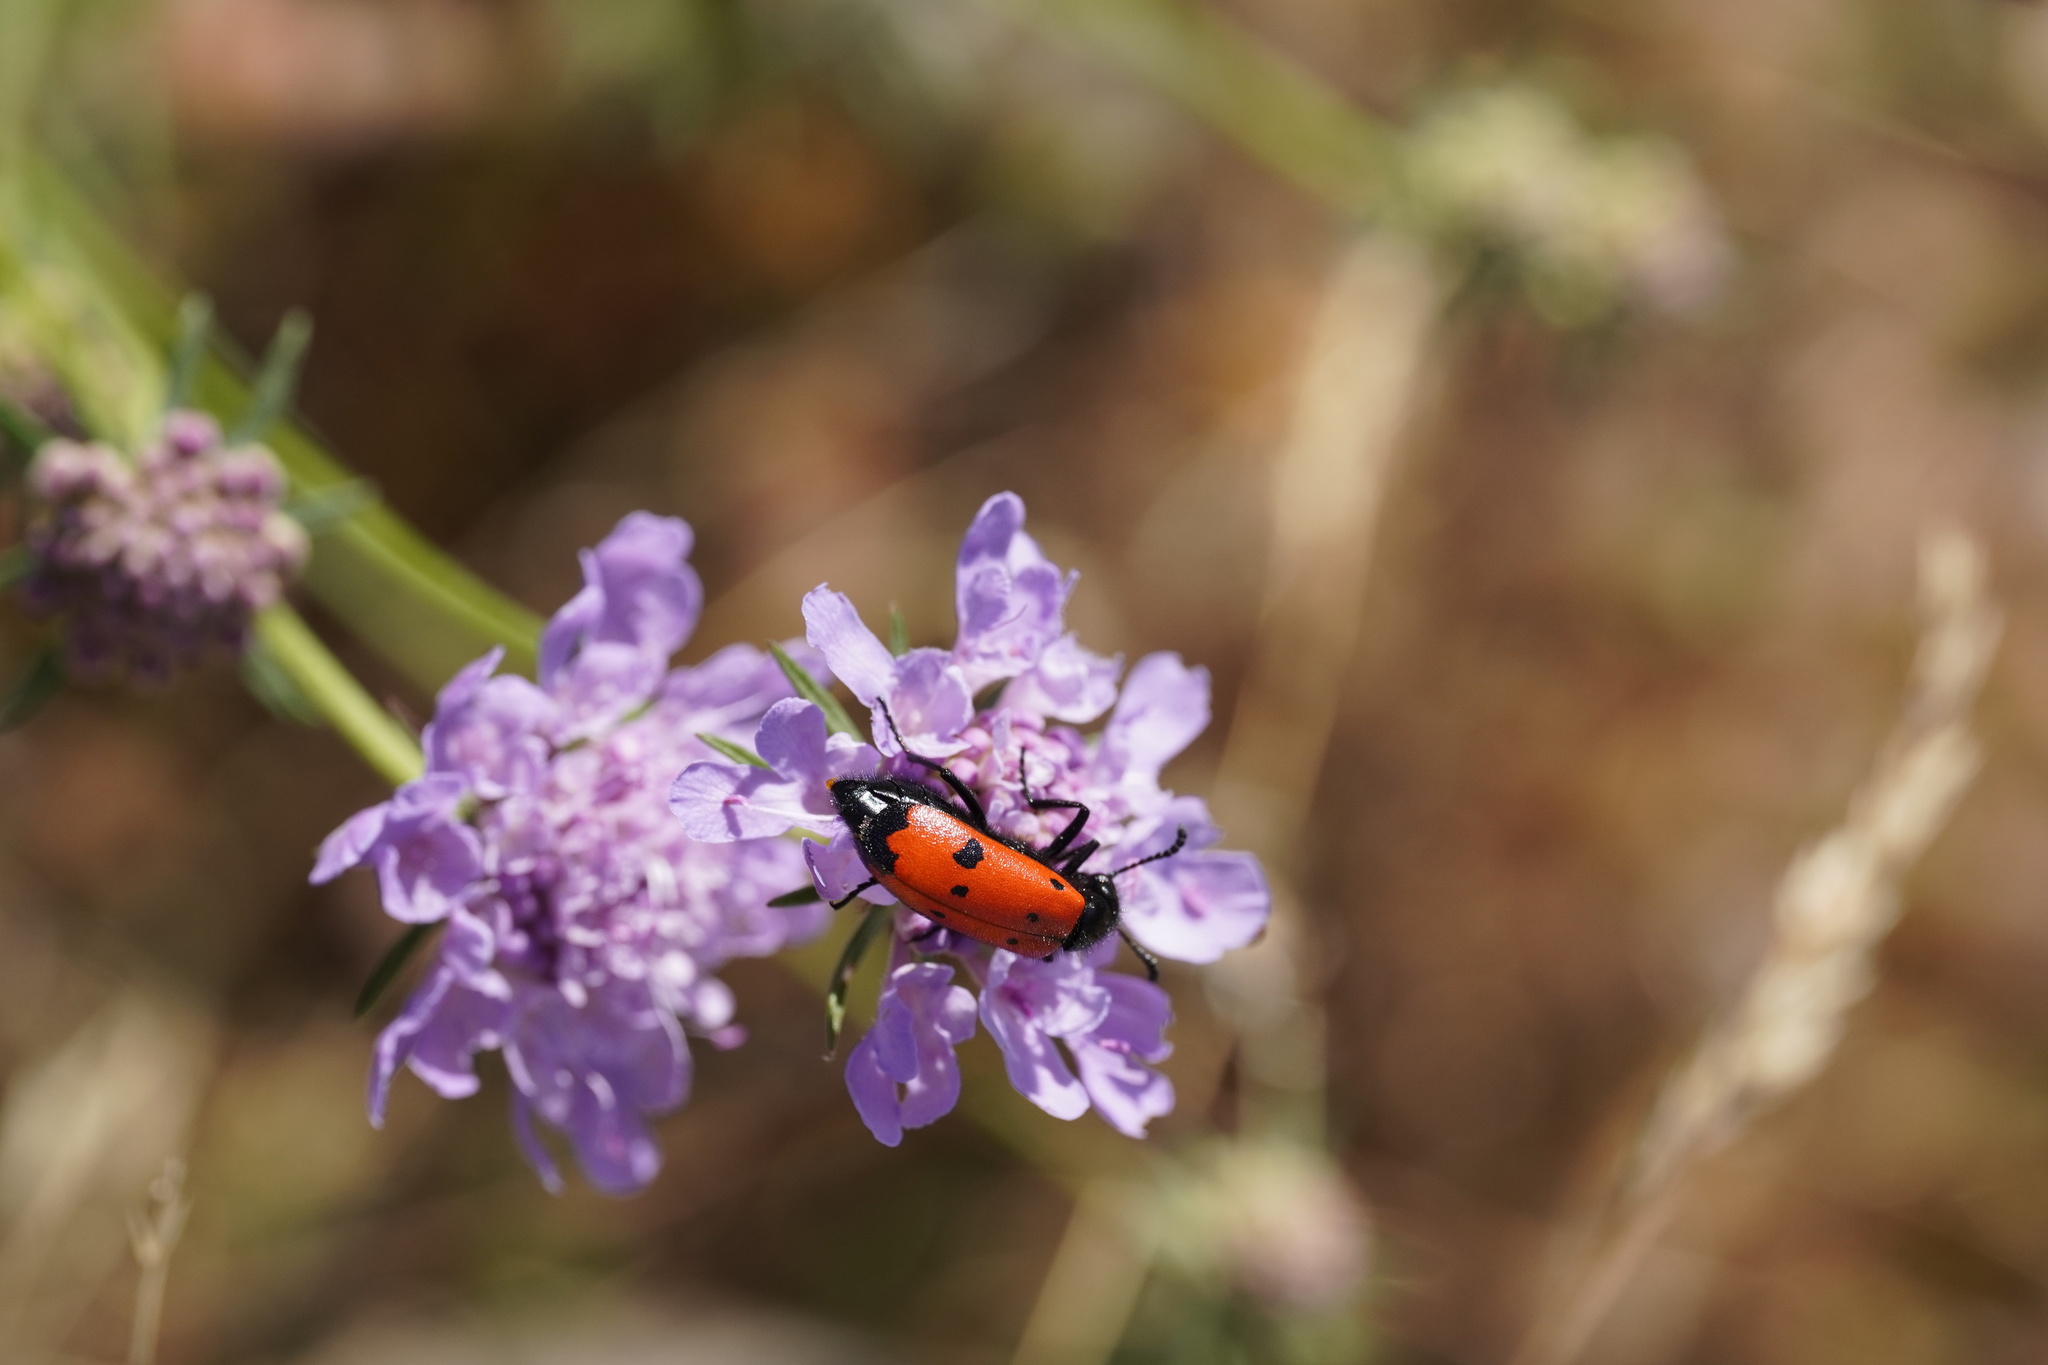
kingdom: Animalia
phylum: Arthropoda
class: Insecta
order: Coleoptera
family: Meloidae
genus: Mylabris
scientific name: Mylabris quadripunctata
